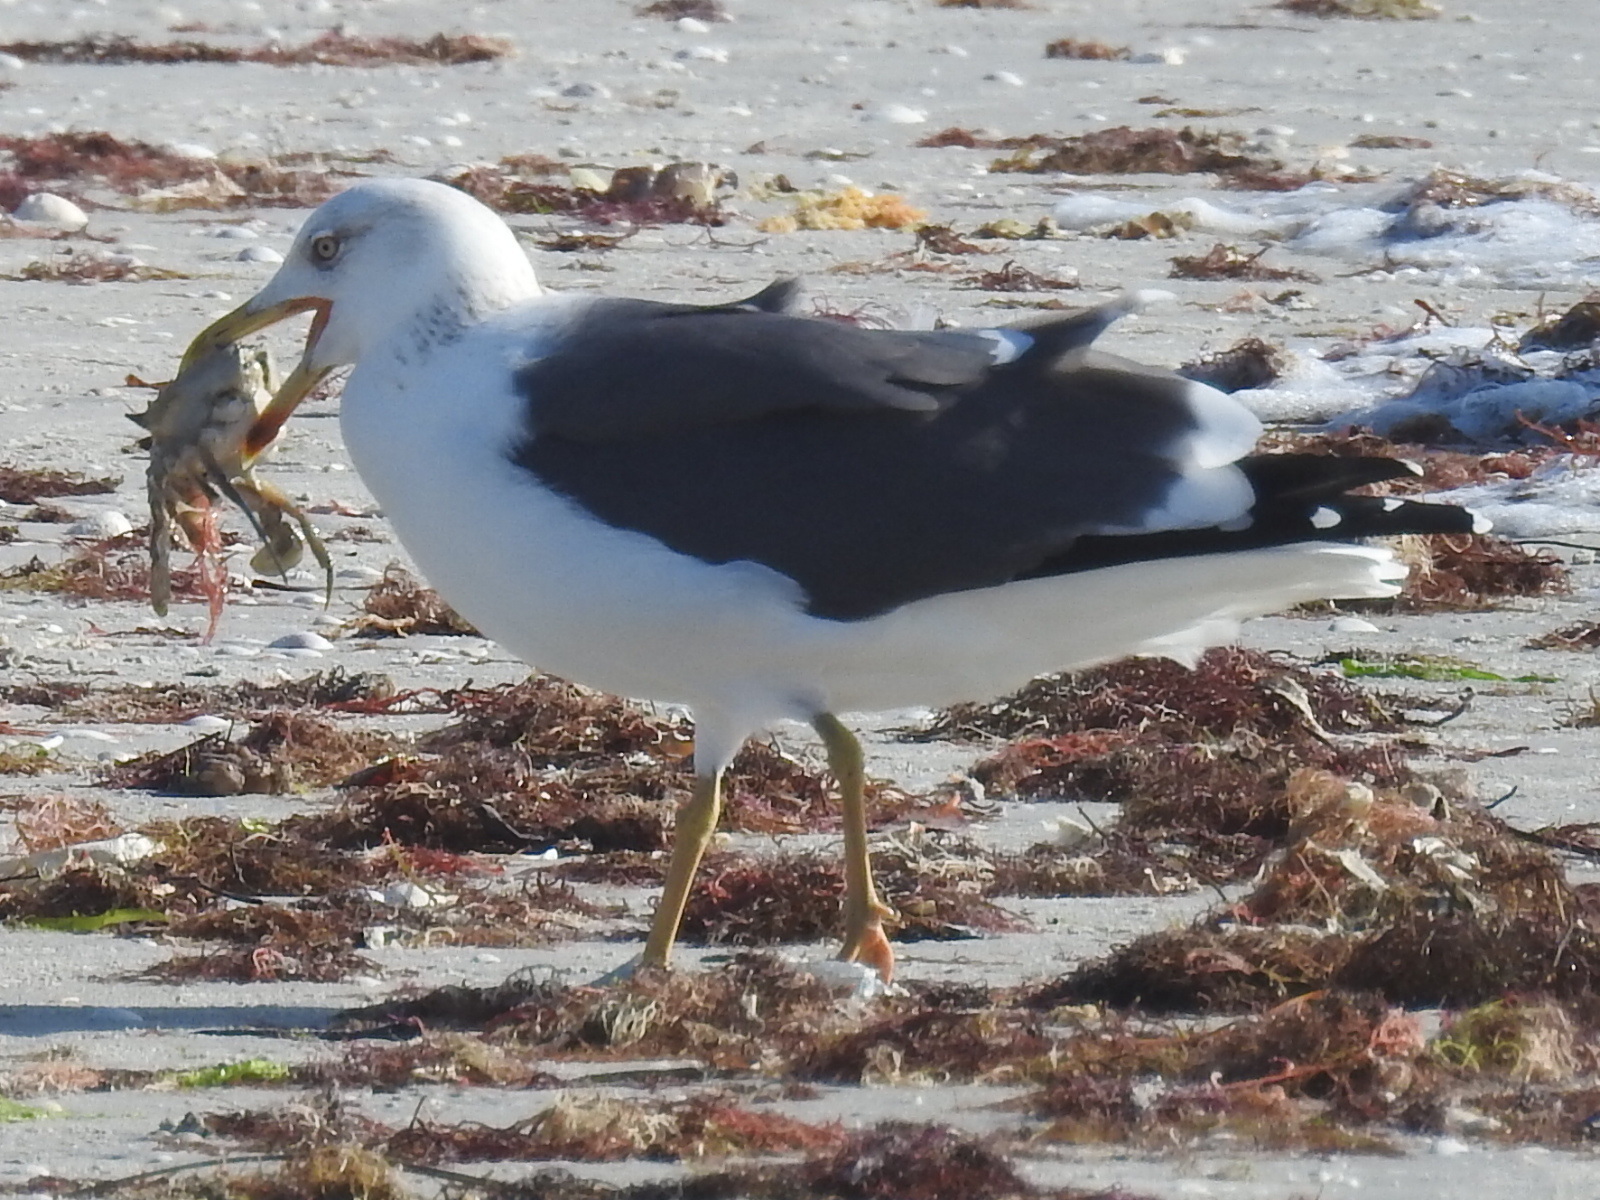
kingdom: Animalia
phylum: Chordata
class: Aves
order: Charadriiformes
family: Laridae
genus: Larus
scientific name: Larus fuscus
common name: Lesser black-backed gull
